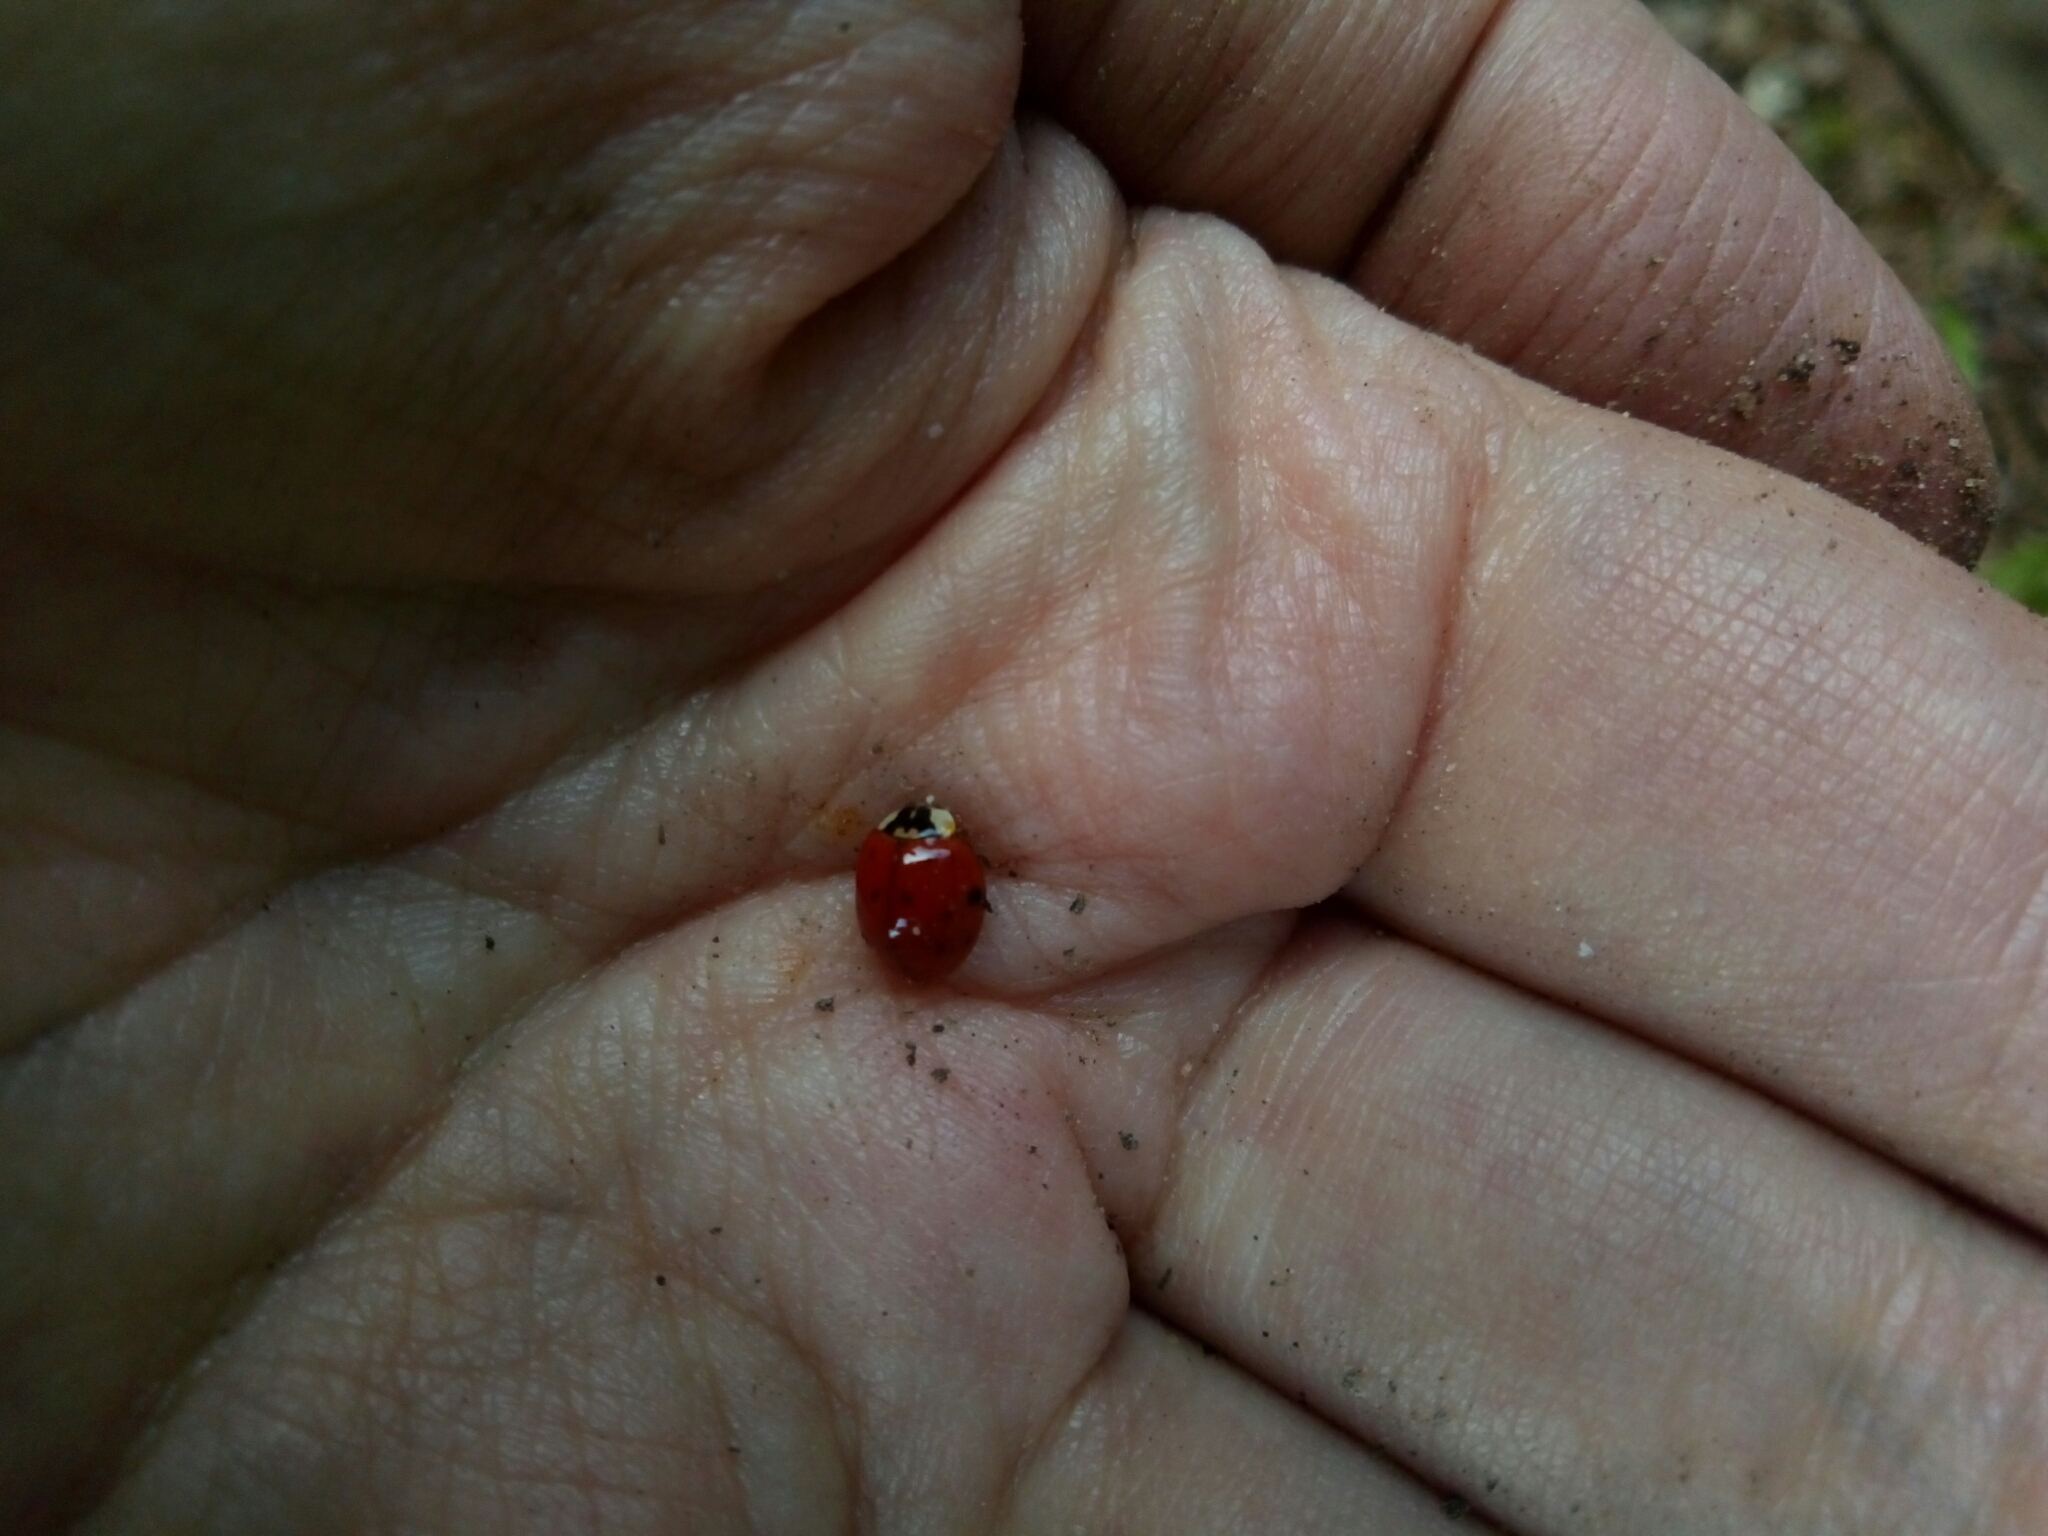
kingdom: Animalia
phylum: Arthropoda
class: Insecta
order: Coleoptera
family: Coccinellidae
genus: Harmonia
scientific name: Harmonia axyridis
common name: Harlequin ladybird
